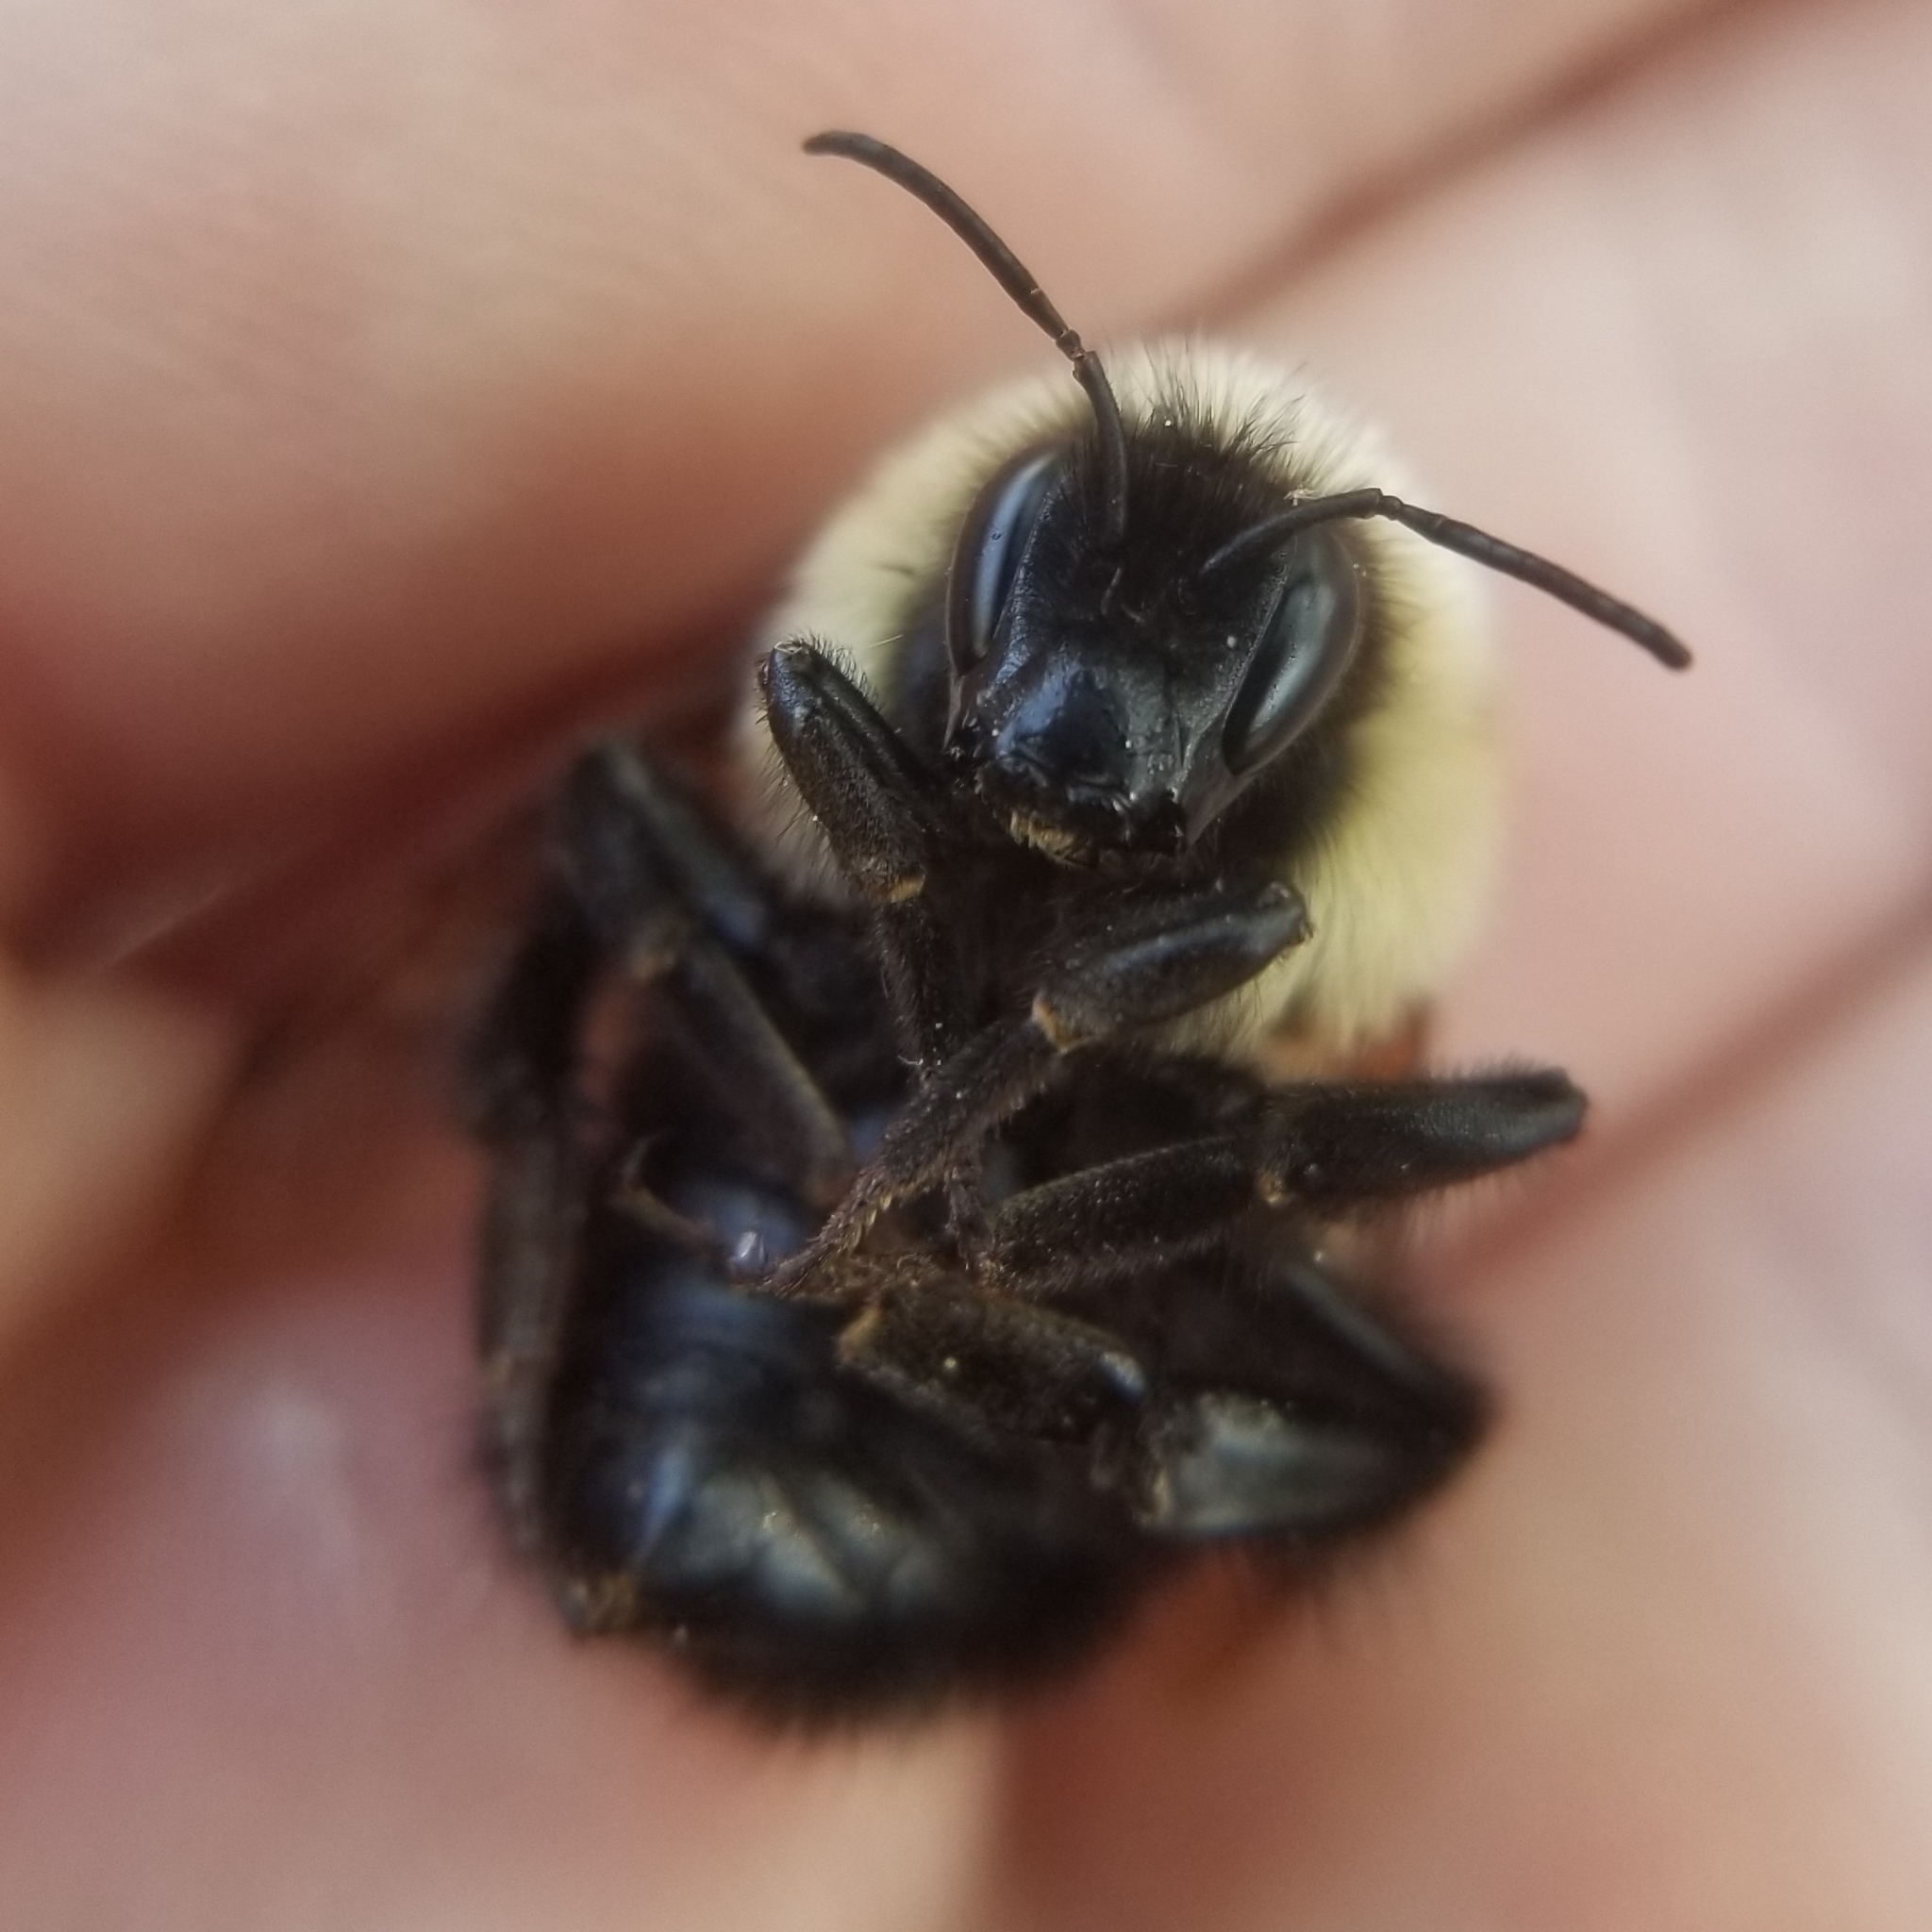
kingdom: Animalia
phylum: Arthropoda
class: Insecta
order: Hymenoptera
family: Apidae
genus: Bombus
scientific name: Bombus bimaculatus
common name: Two-spotted bumble bee
